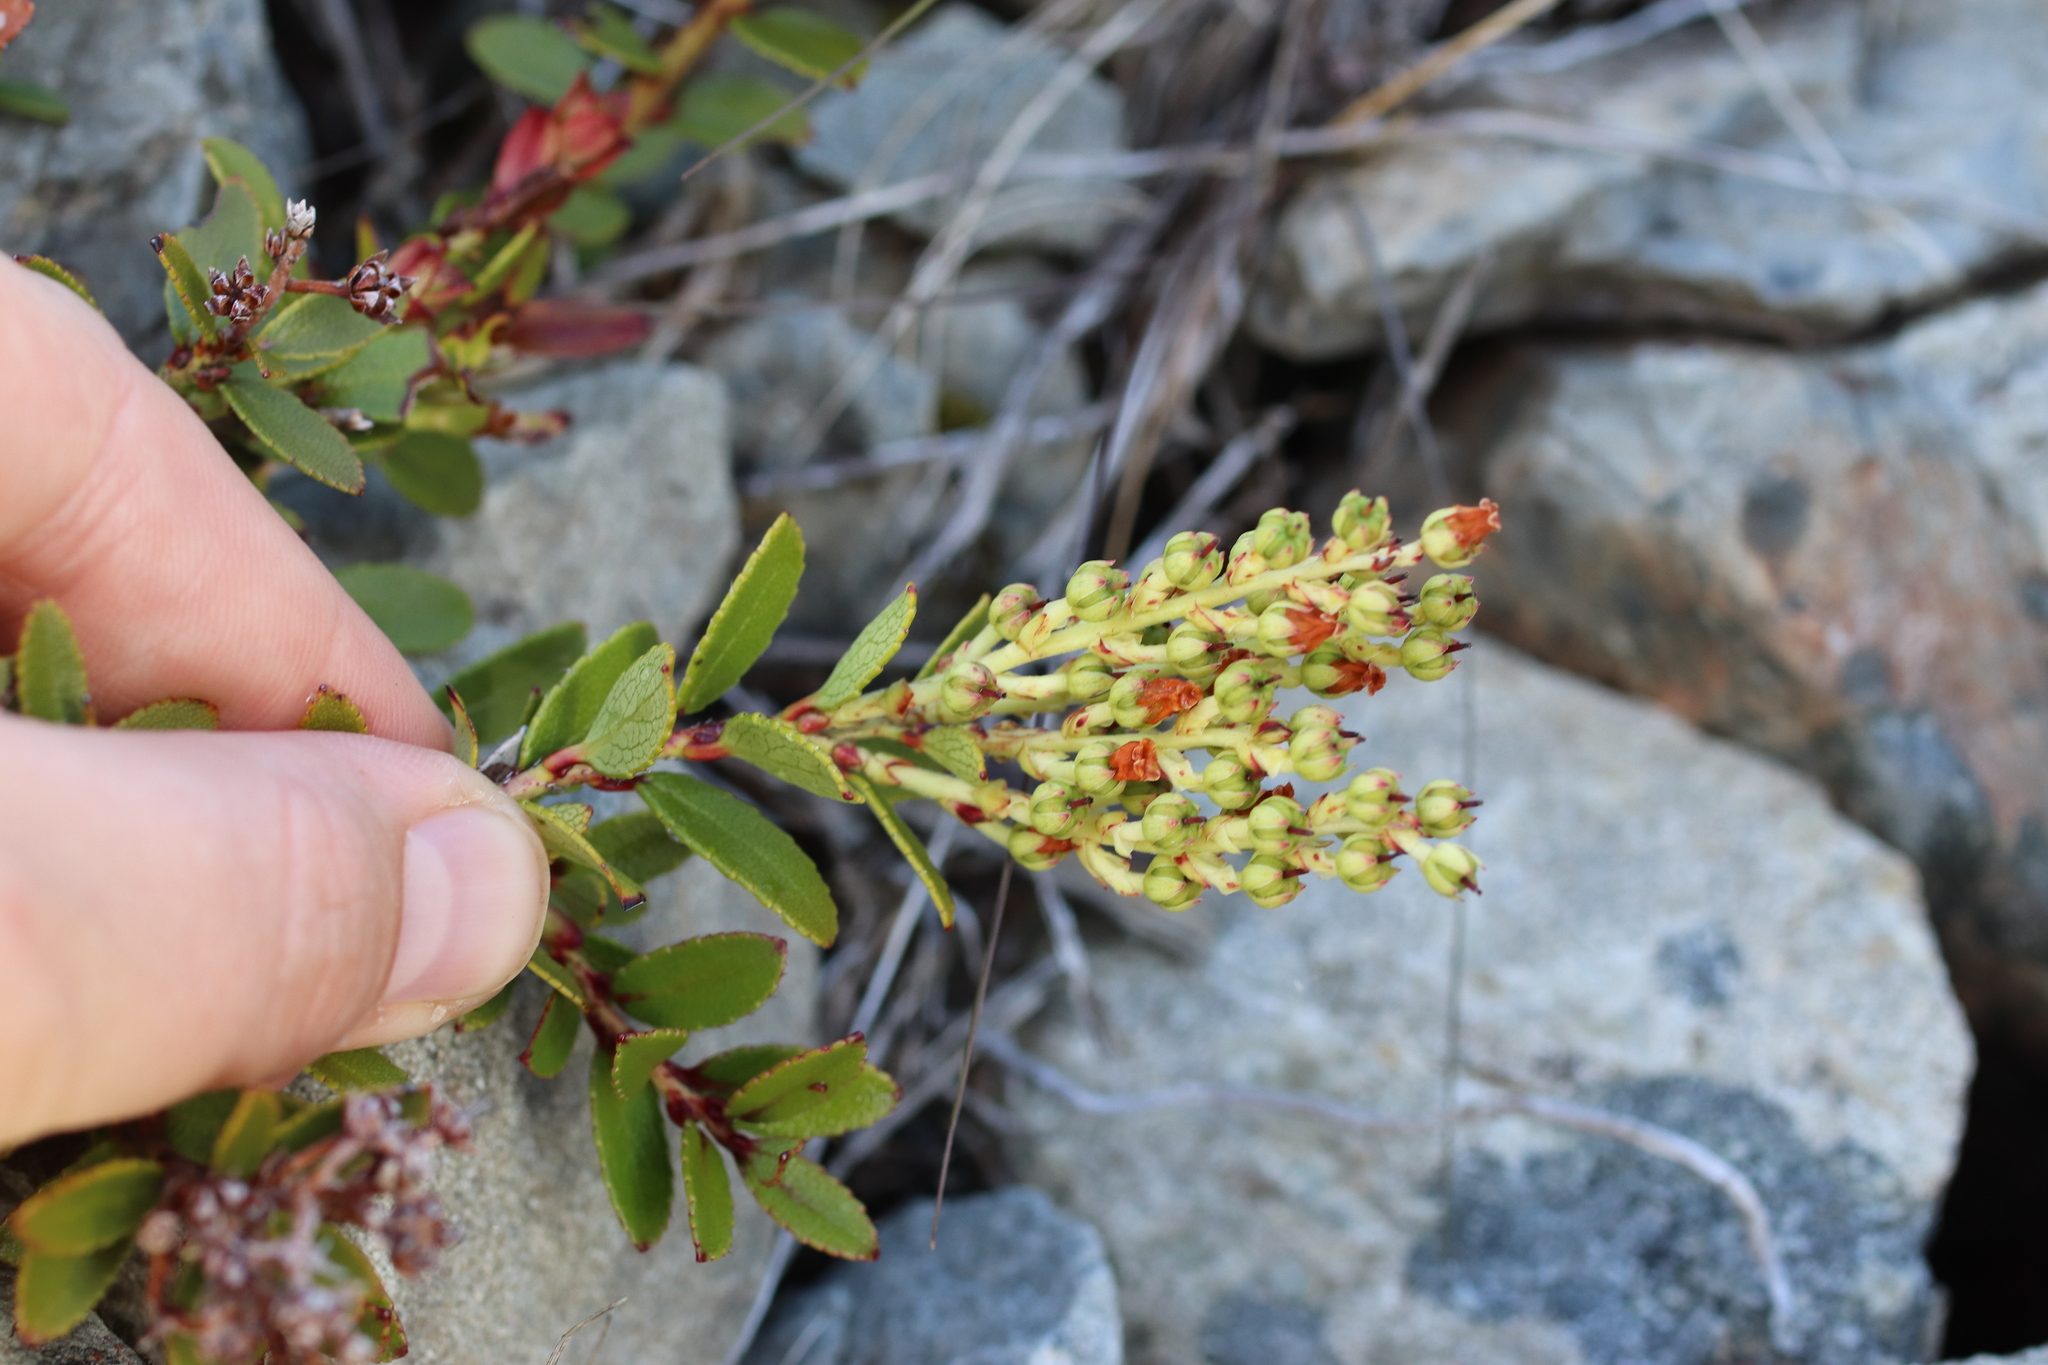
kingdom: Plantae
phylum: Tracheophyta
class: Magnoliopsida
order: Ericales
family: Ericaceae
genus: Gaultheria
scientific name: Gaultheria crassa
